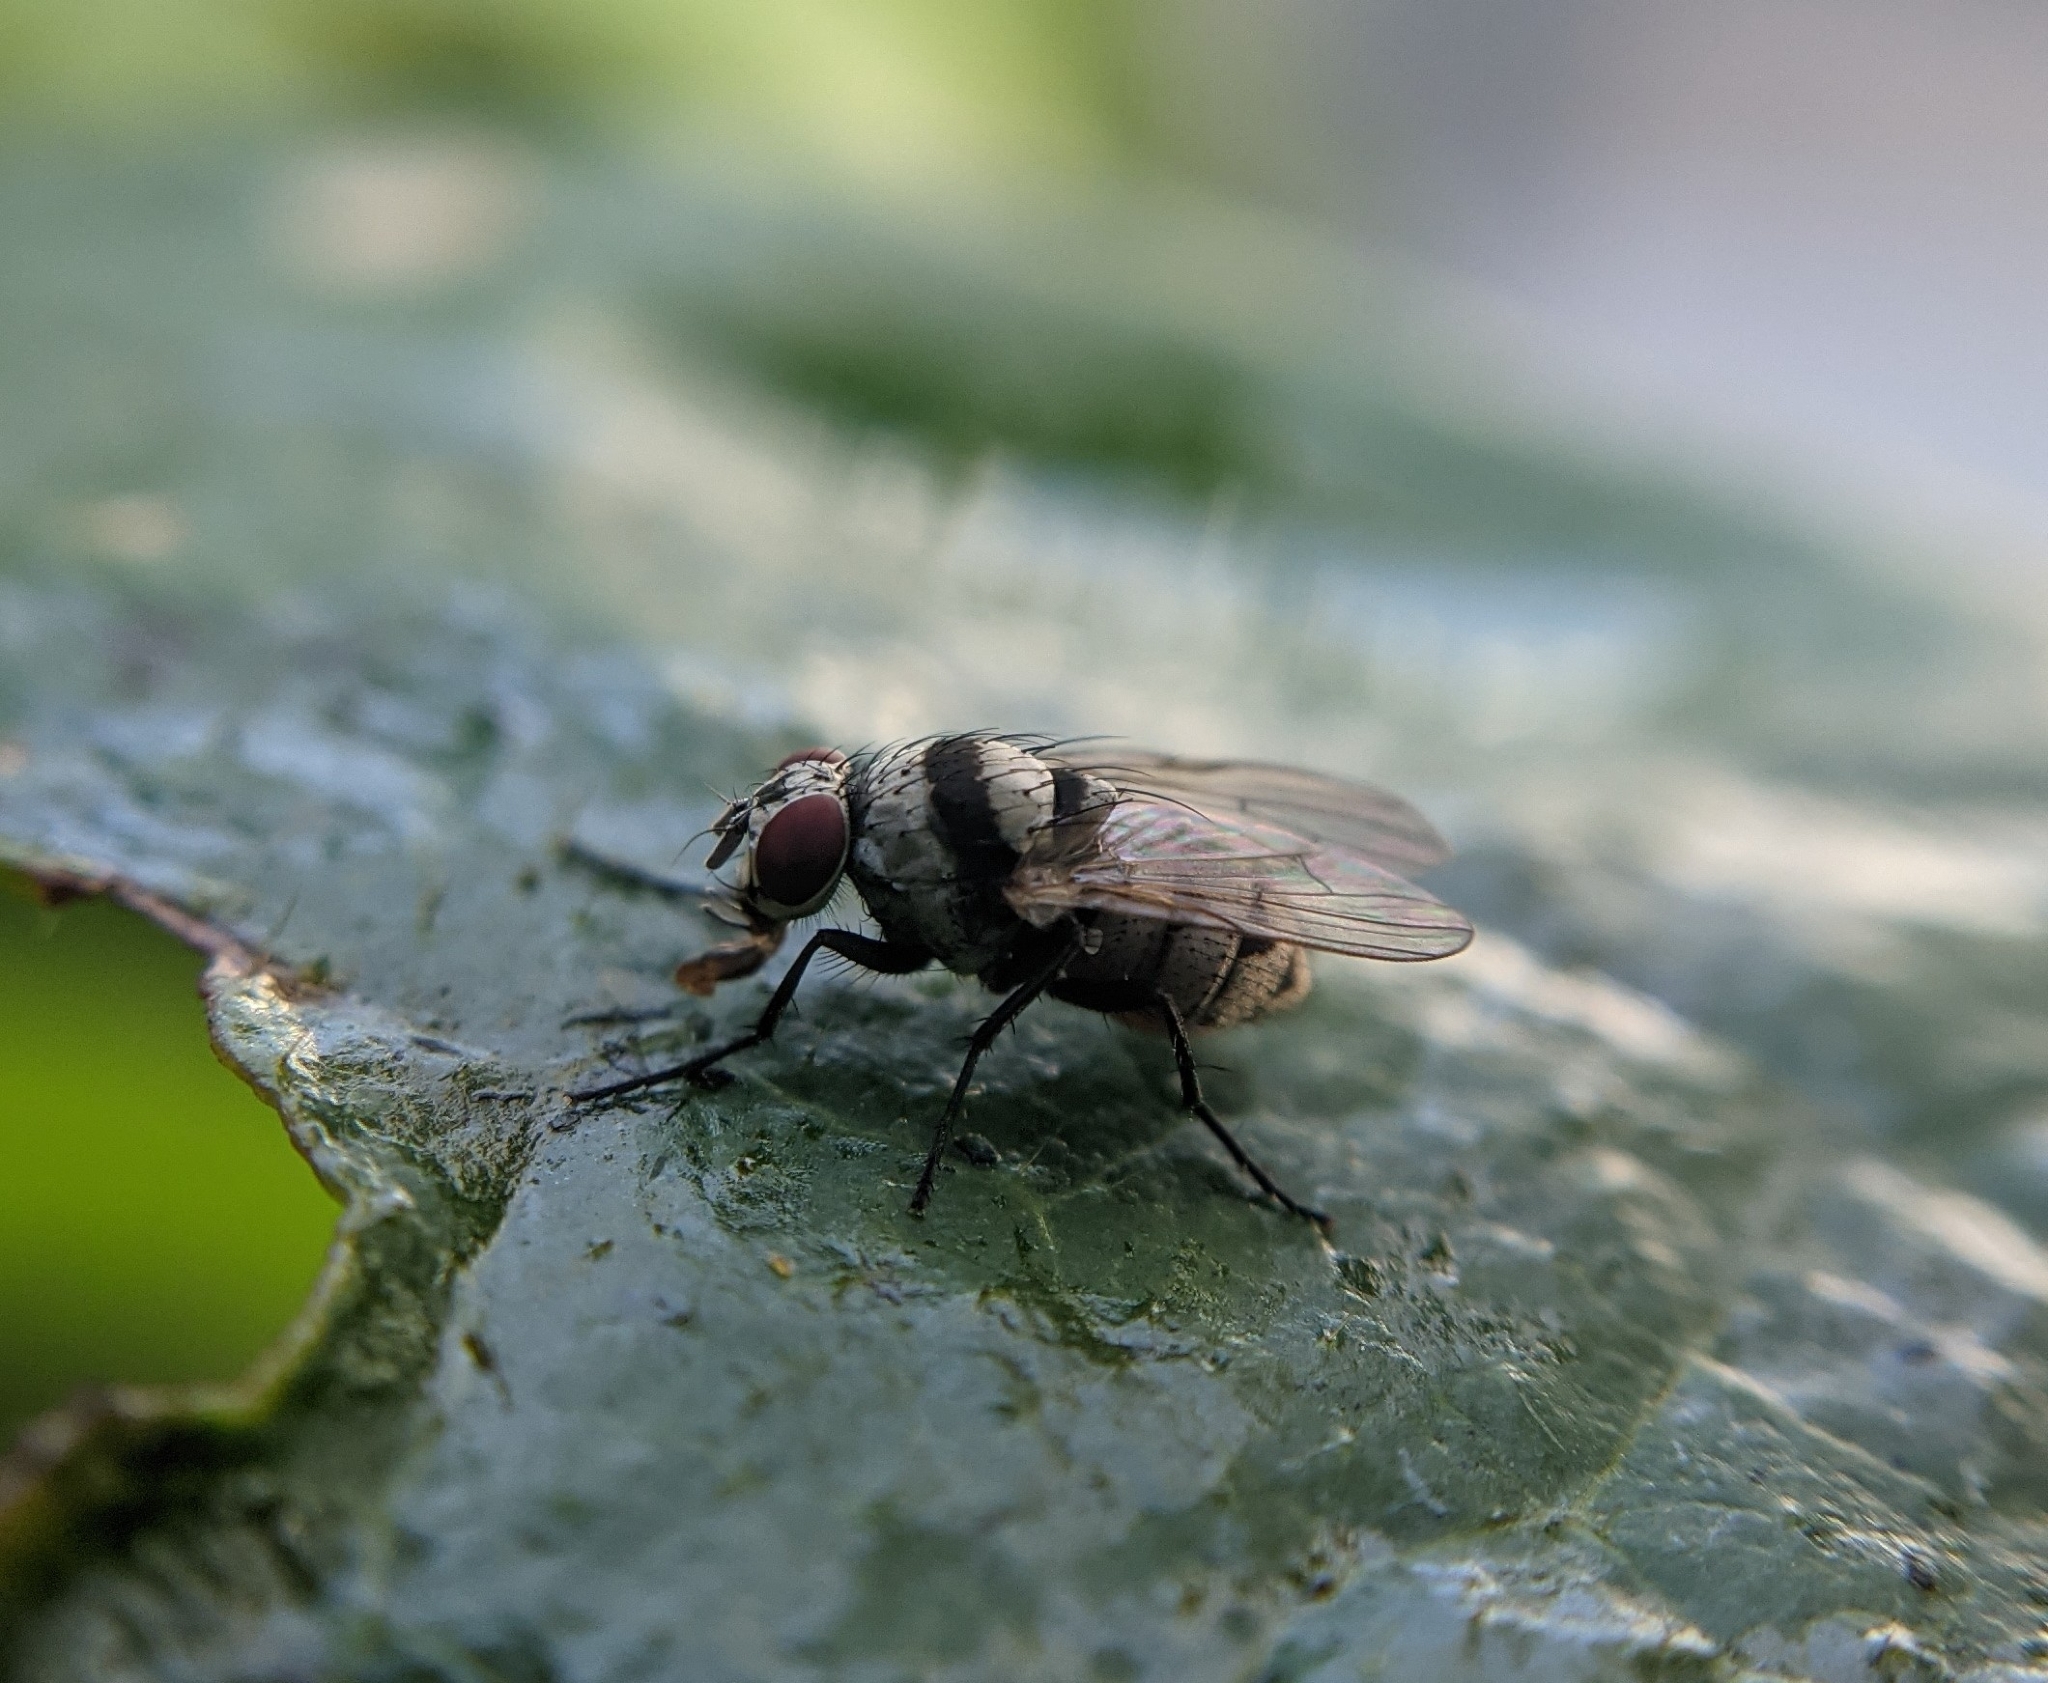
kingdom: Animalia
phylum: Arthropoda
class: Insecta
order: Diptera
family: Anthomyiidae
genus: Anthomyia
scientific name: Anthomyia illocata
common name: Fly
